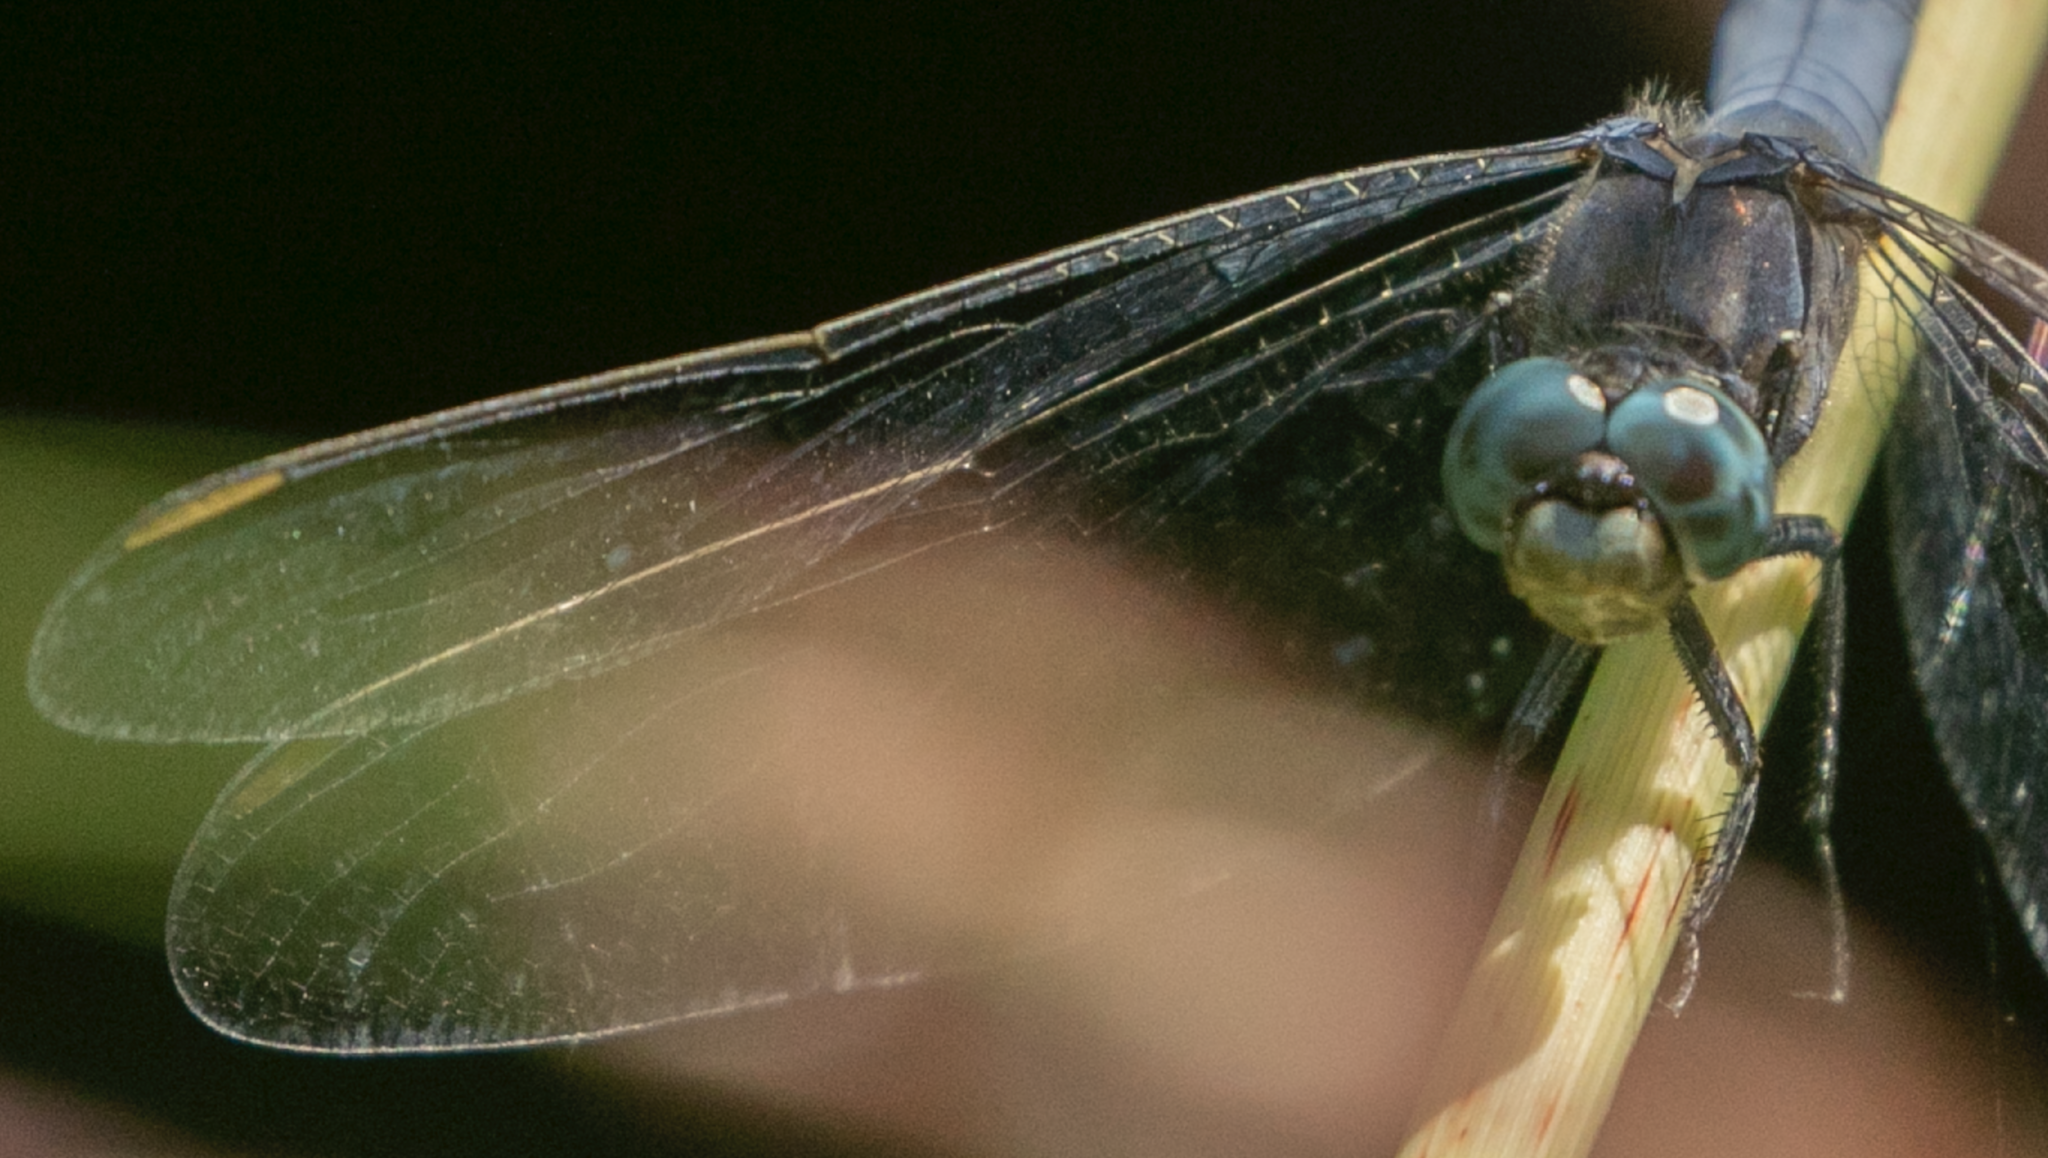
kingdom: Animalia
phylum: Arthropoda
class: Insecta
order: Odonata
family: Libellulidae
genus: Orthetrum
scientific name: Orthetrum coerulescens
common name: Keeled skimmer
